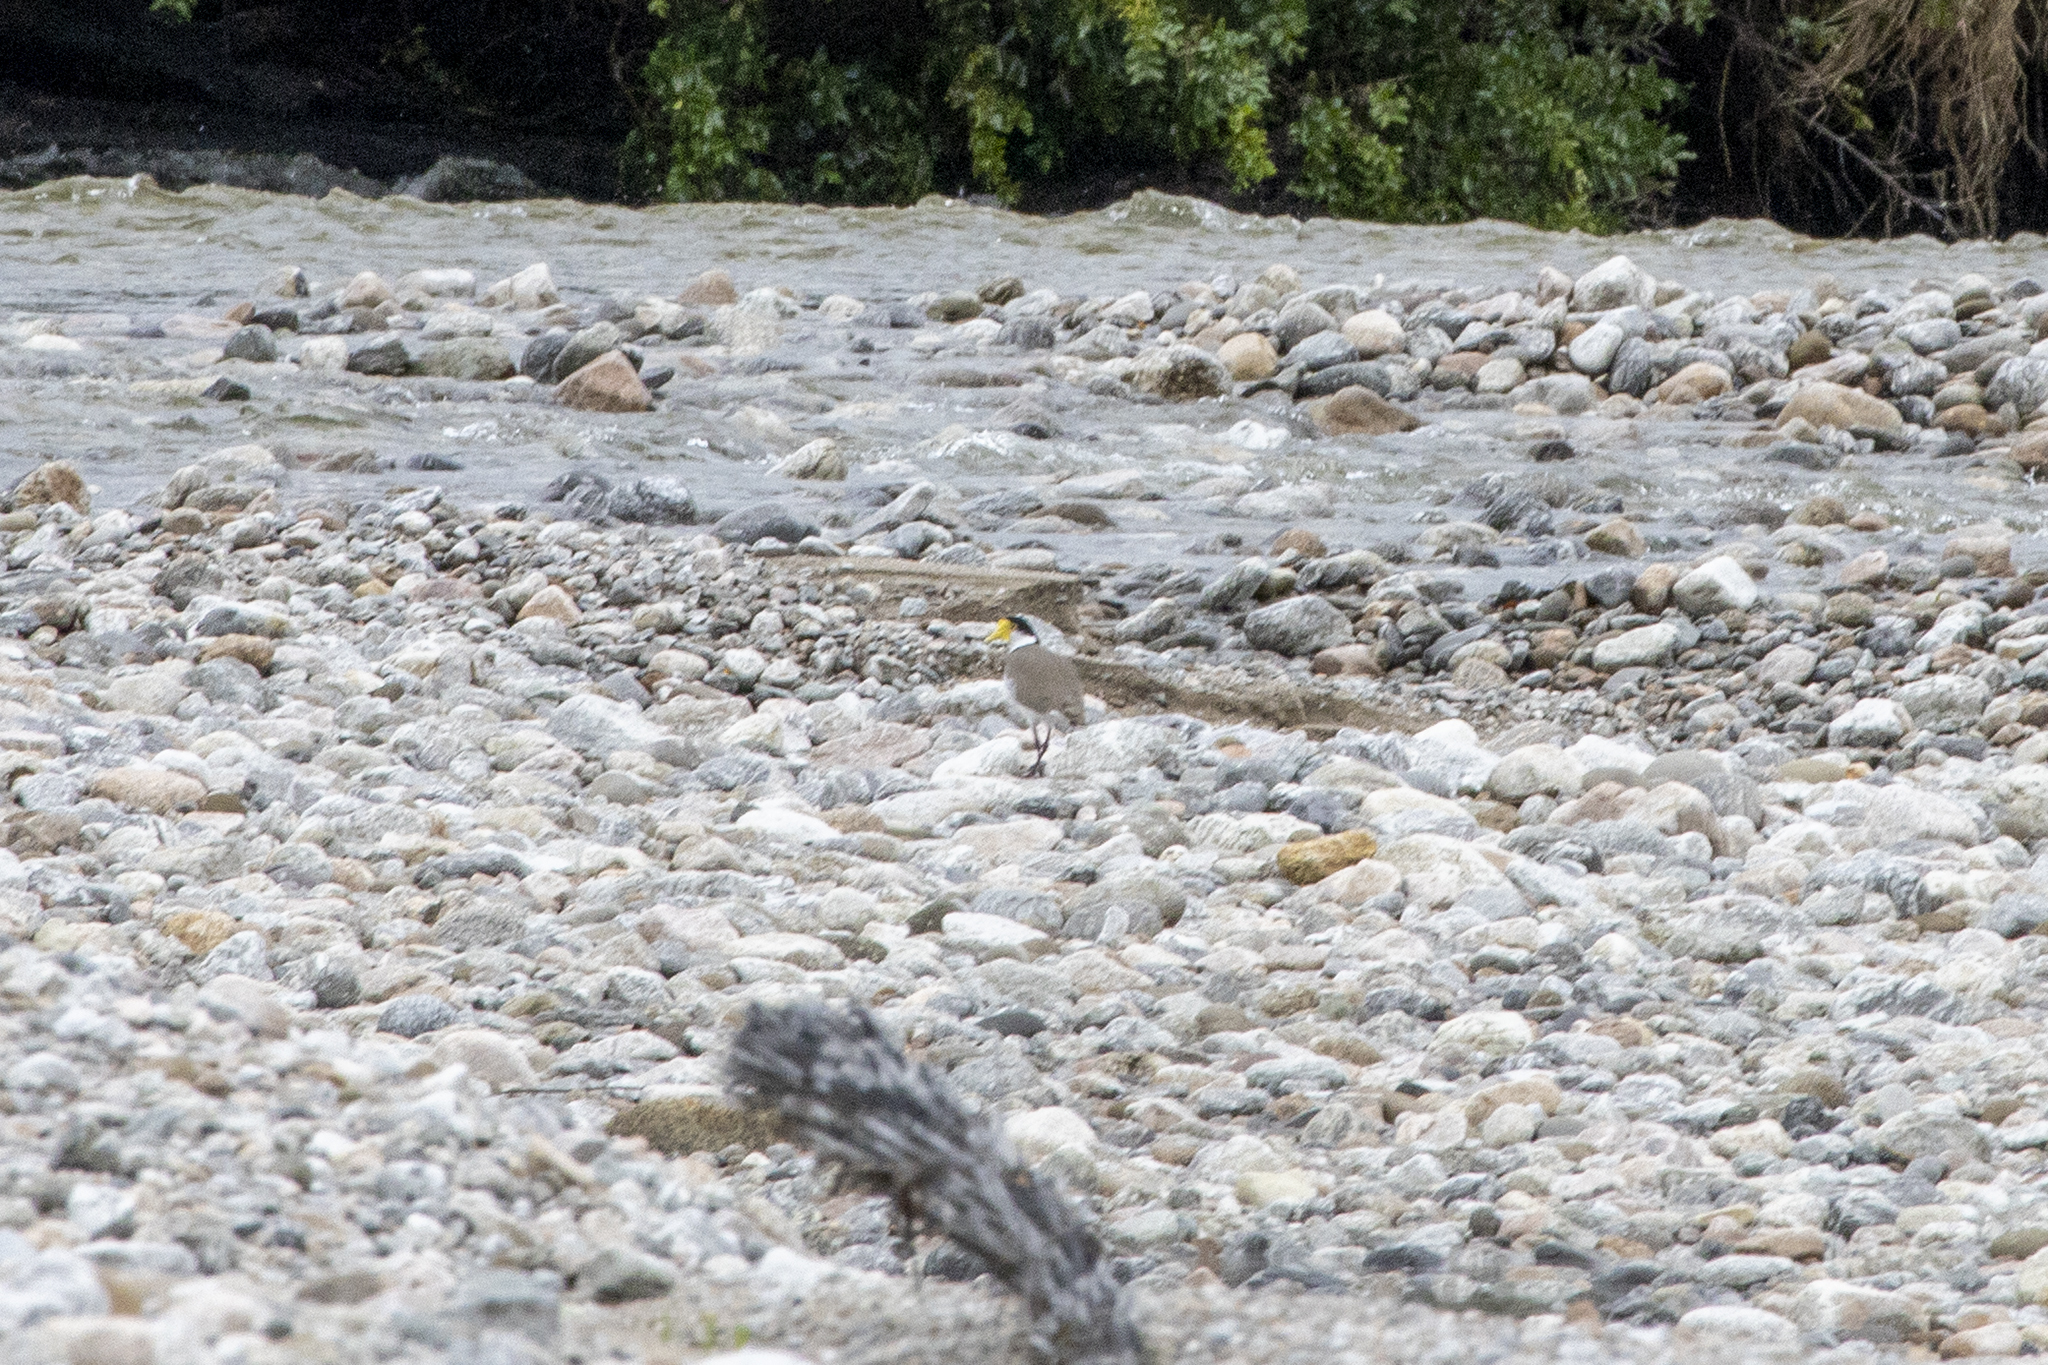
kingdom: Animalia
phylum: Chordata
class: Aves
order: Charadriiformes
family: Charadriidae
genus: Vanellus
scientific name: Vanellus miles
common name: Masked lapwing
